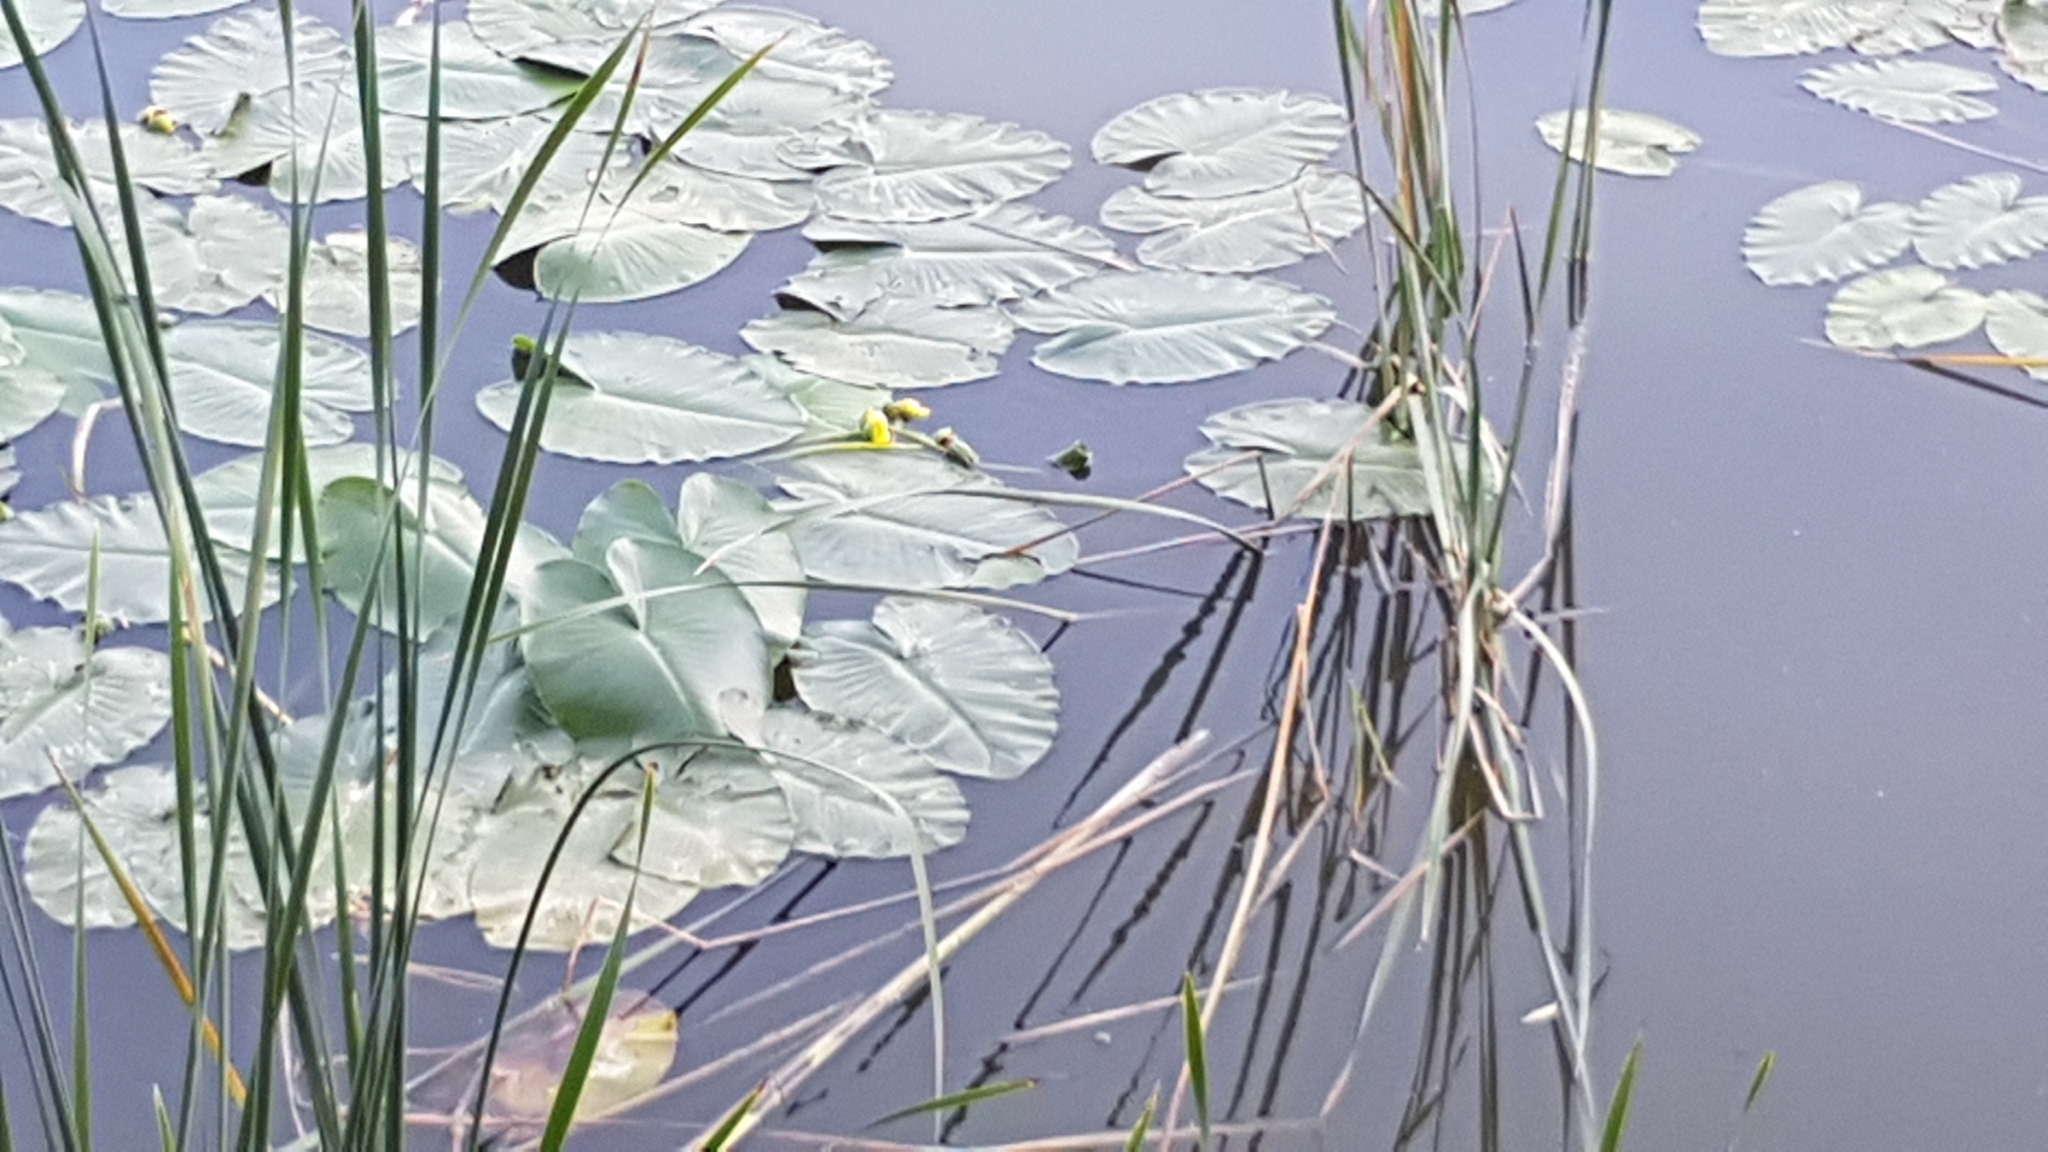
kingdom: Plantae
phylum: Tracheophyta
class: Magnoliopsida
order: Nymphaeales
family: Nymphaeaceae
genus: Nuphar
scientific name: Nuphar variegata
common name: Beaver-root
